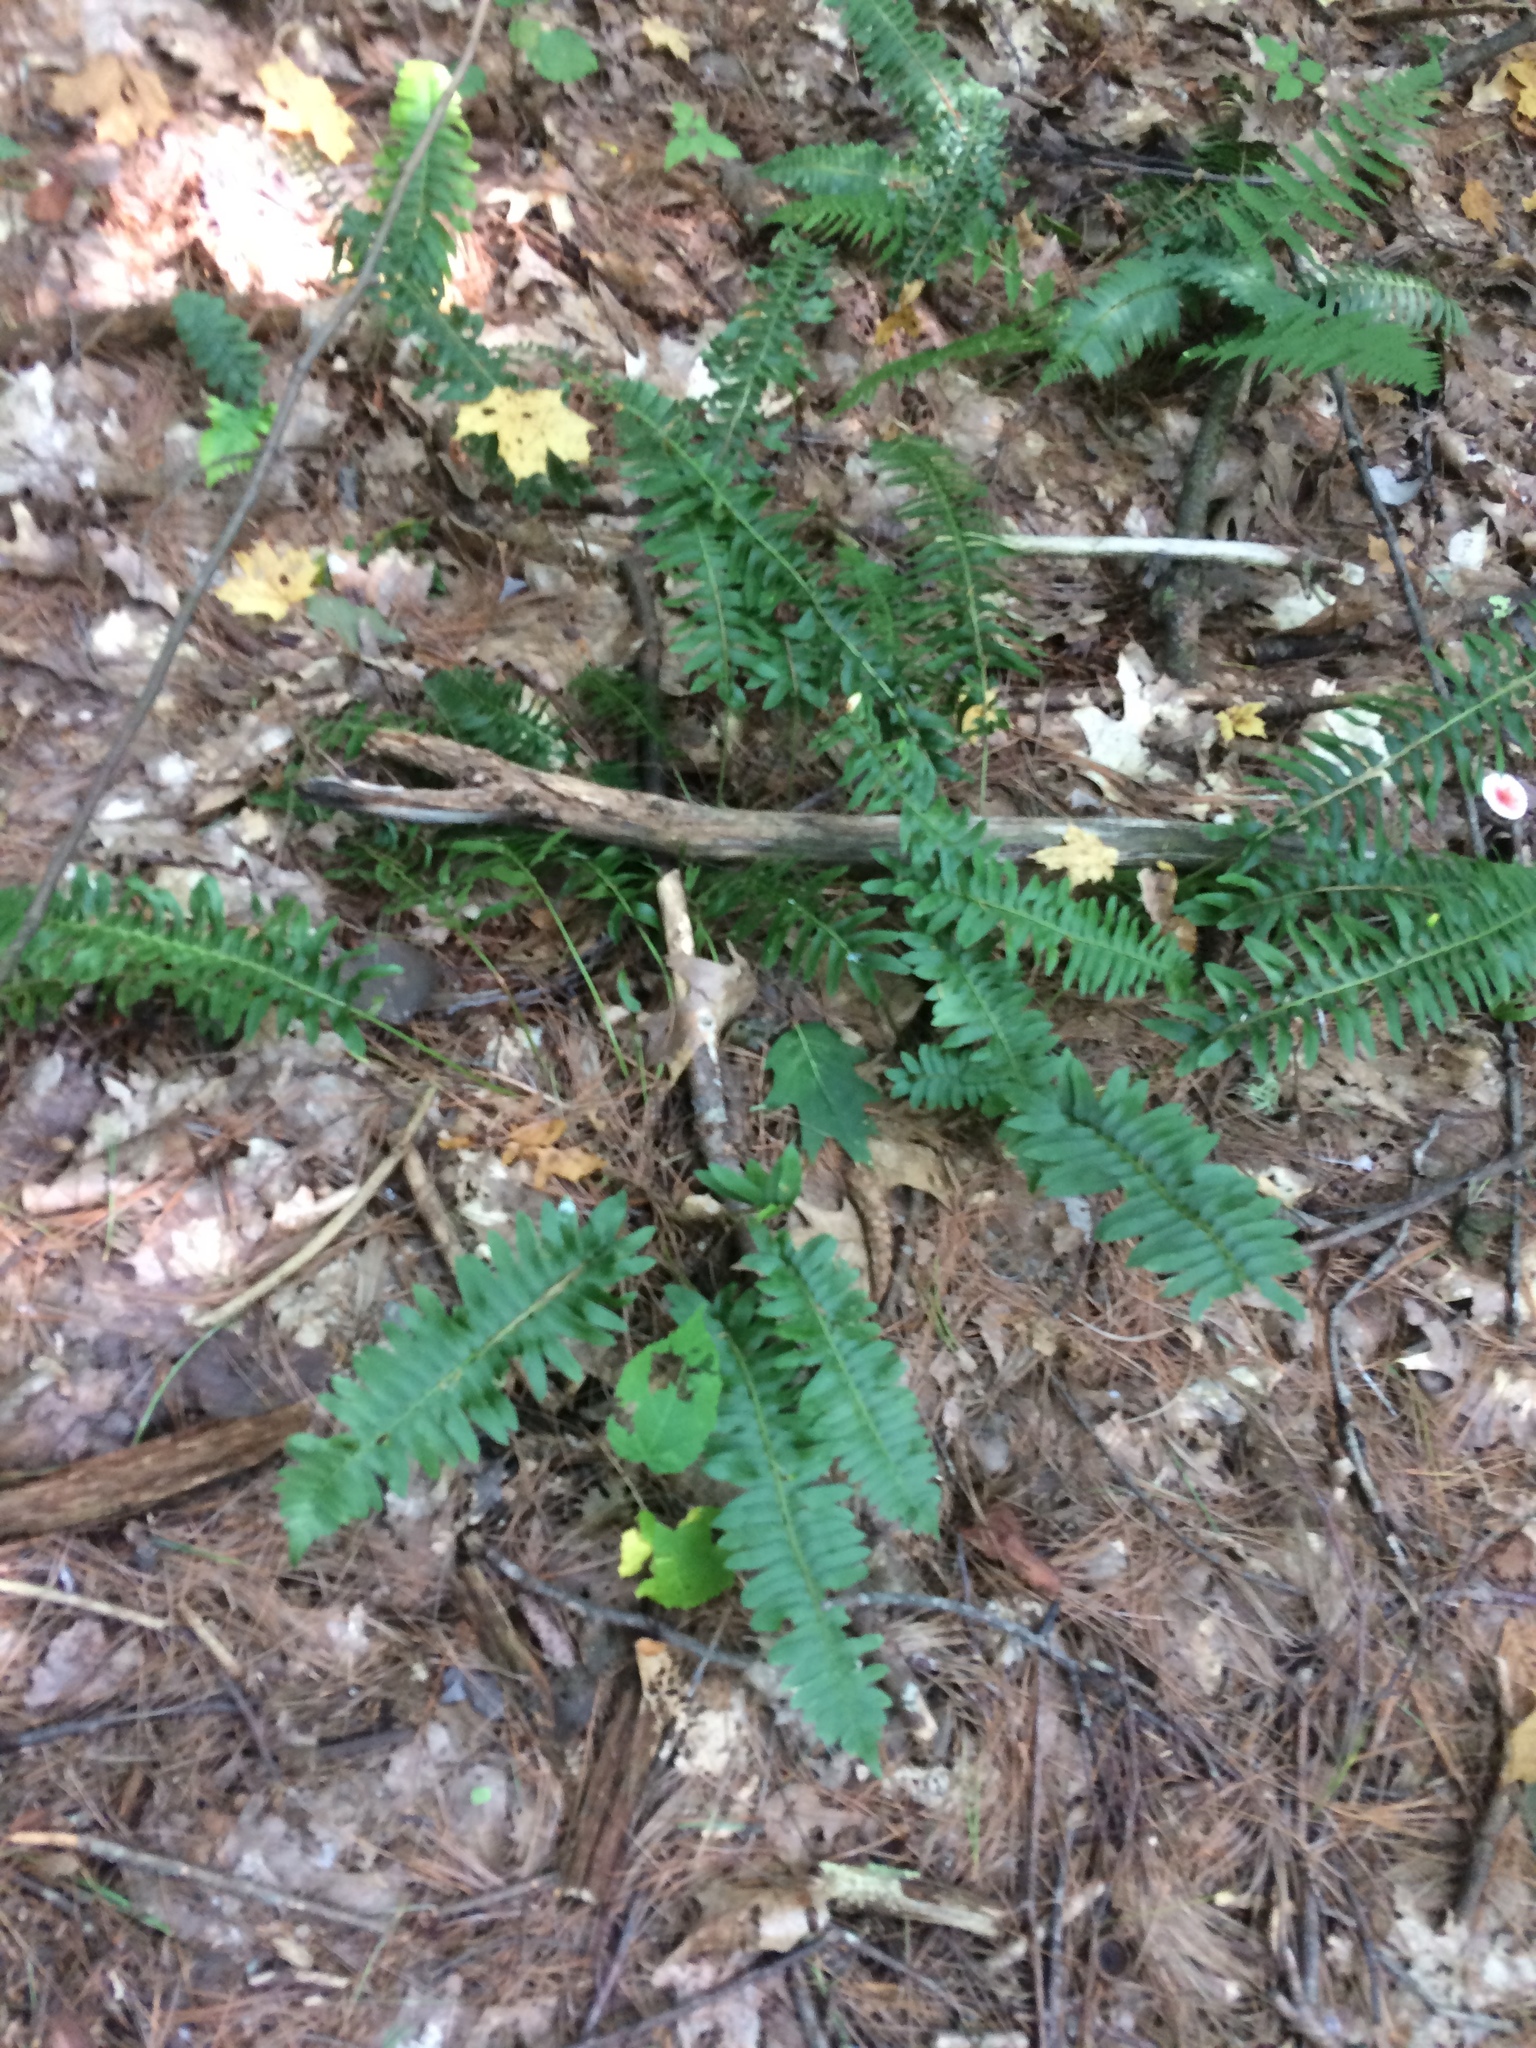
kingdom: Plantae
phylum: Tracheophyta
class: Polypodiopsida
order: Polypodiales
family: Dryopteridaceae
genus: Polystichum
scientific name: Polystichum acrostichoides
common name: Christmas fern
